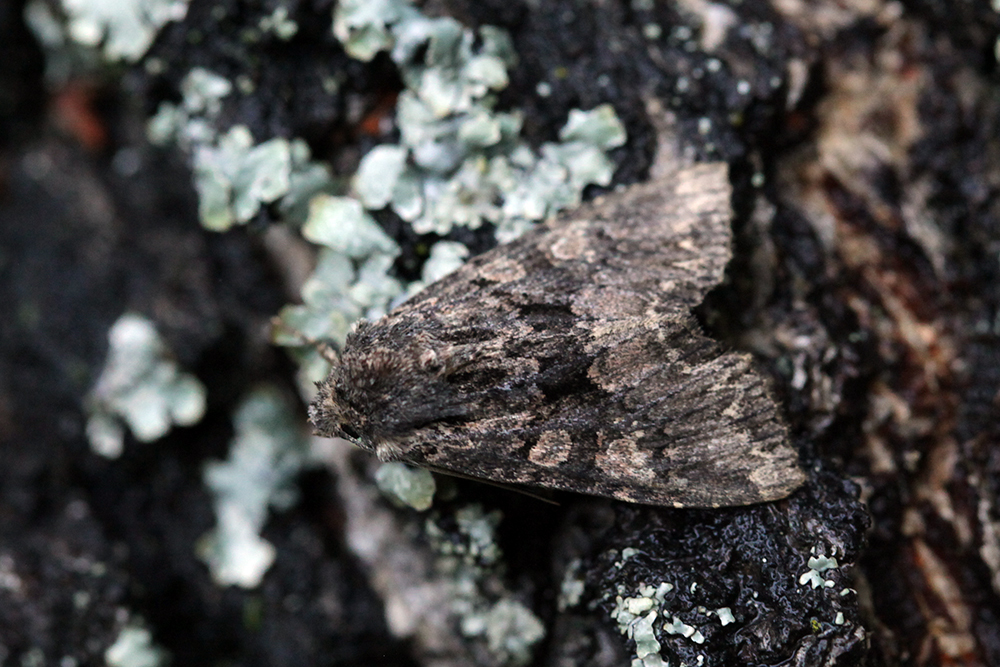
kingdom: Animalia
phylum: Arthropoda
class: Insecta
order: Lepidoptera
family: Noctuidae
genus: Mniotype
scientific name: Mniotype satura
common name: Beautiful arches
